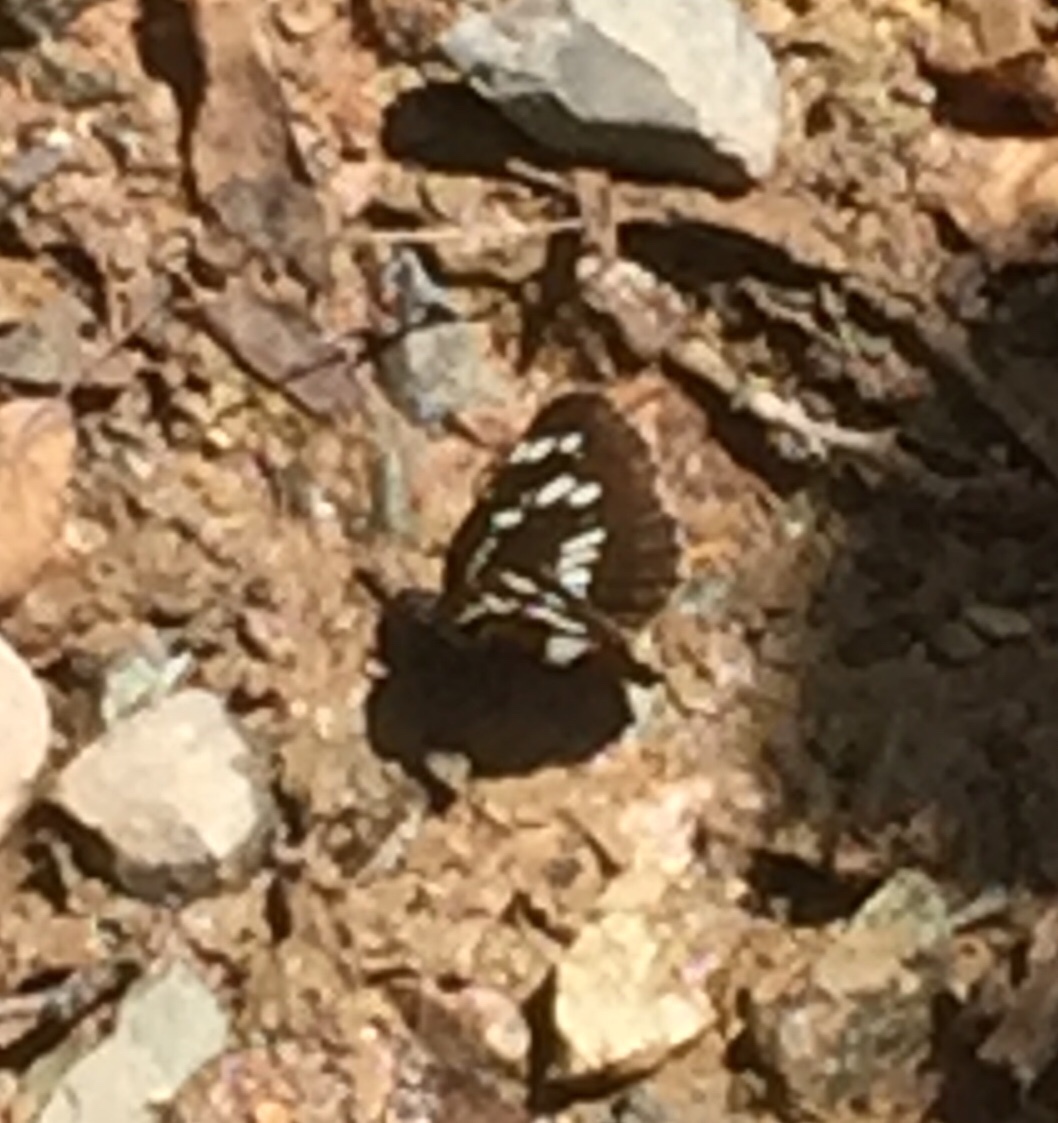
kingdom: Animalia
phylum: Arthropoda
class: Insecta
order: Lepidoptera
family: Nymphalidae
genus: Neptis
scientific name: Neptis rivularis
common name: Hungarian glider
